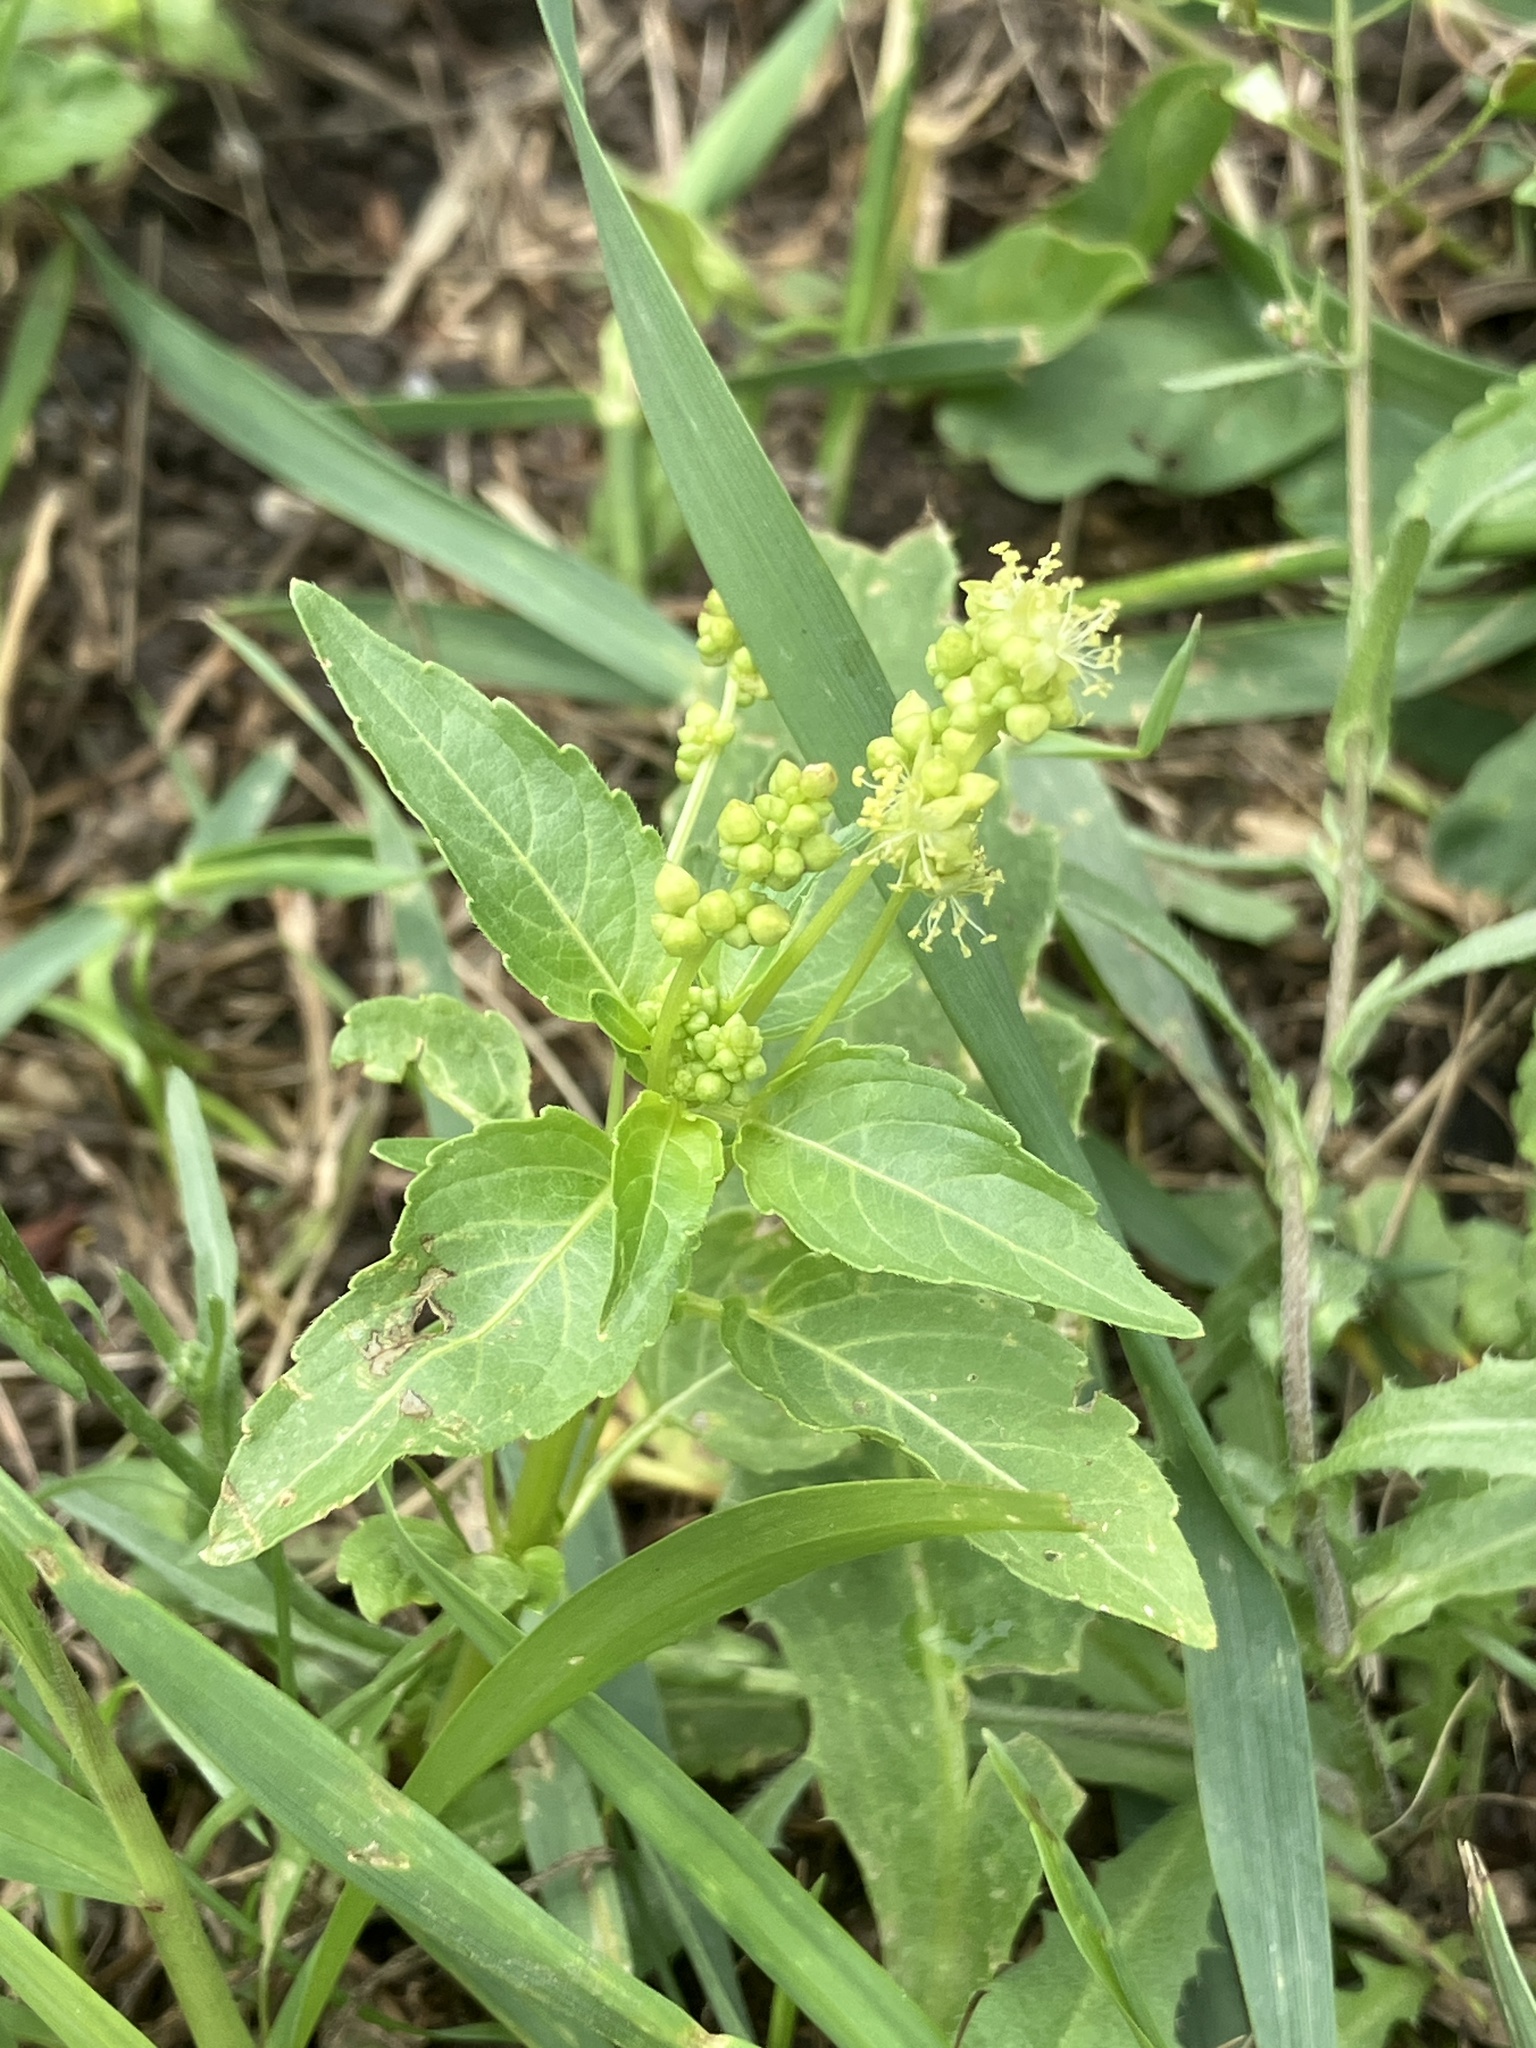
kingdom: Plantae
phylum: Tracheophyta
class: Magnoliopsida
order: Malpighiales
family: Euphorbiaceae
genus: Mercurialis
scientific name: Mercurialis annua
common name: Annual mercury
